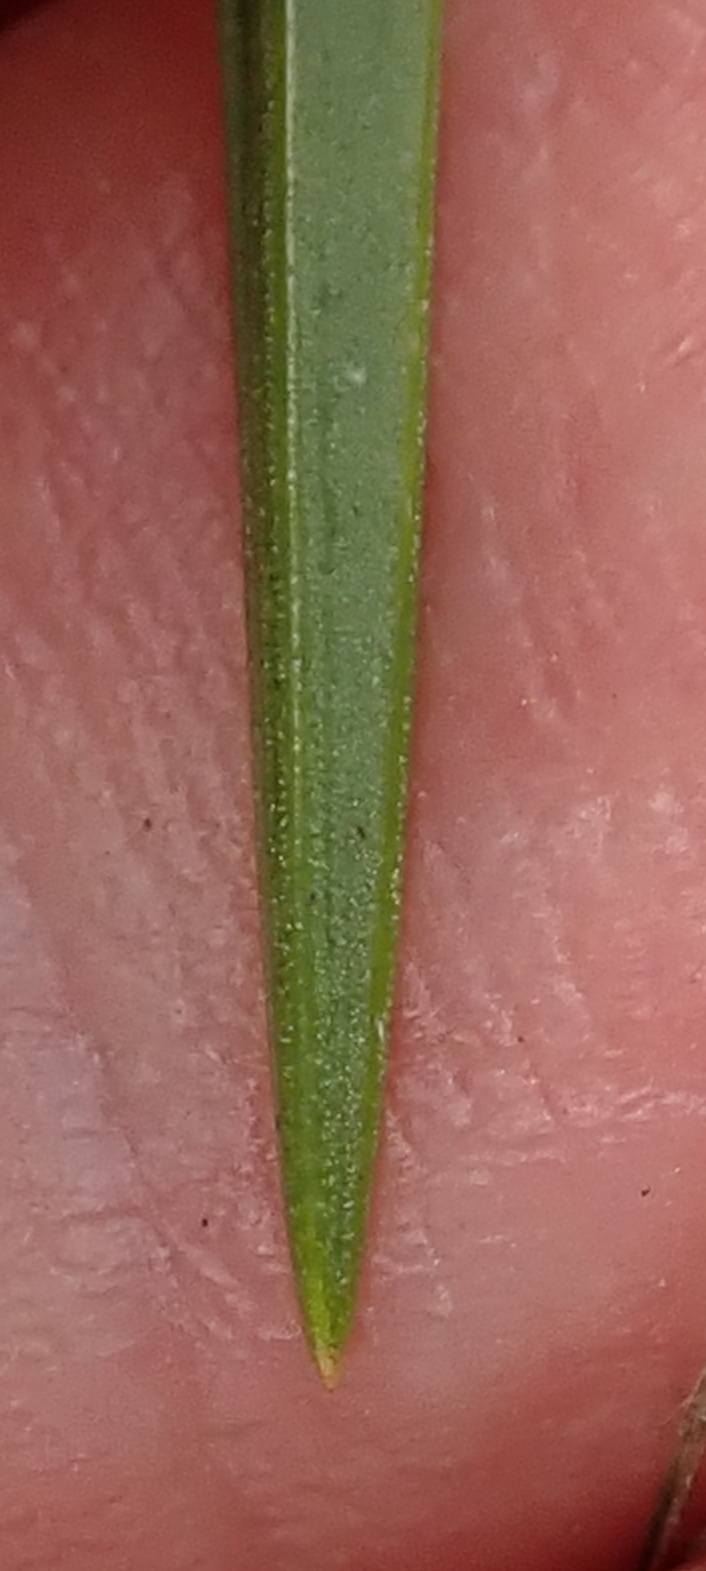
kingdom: Plantae
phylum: Tracheophyta
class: Liliopsida
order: Asparagales
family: Orchidaceae
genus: Eulophia
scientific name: Eulophia leontoglossa
